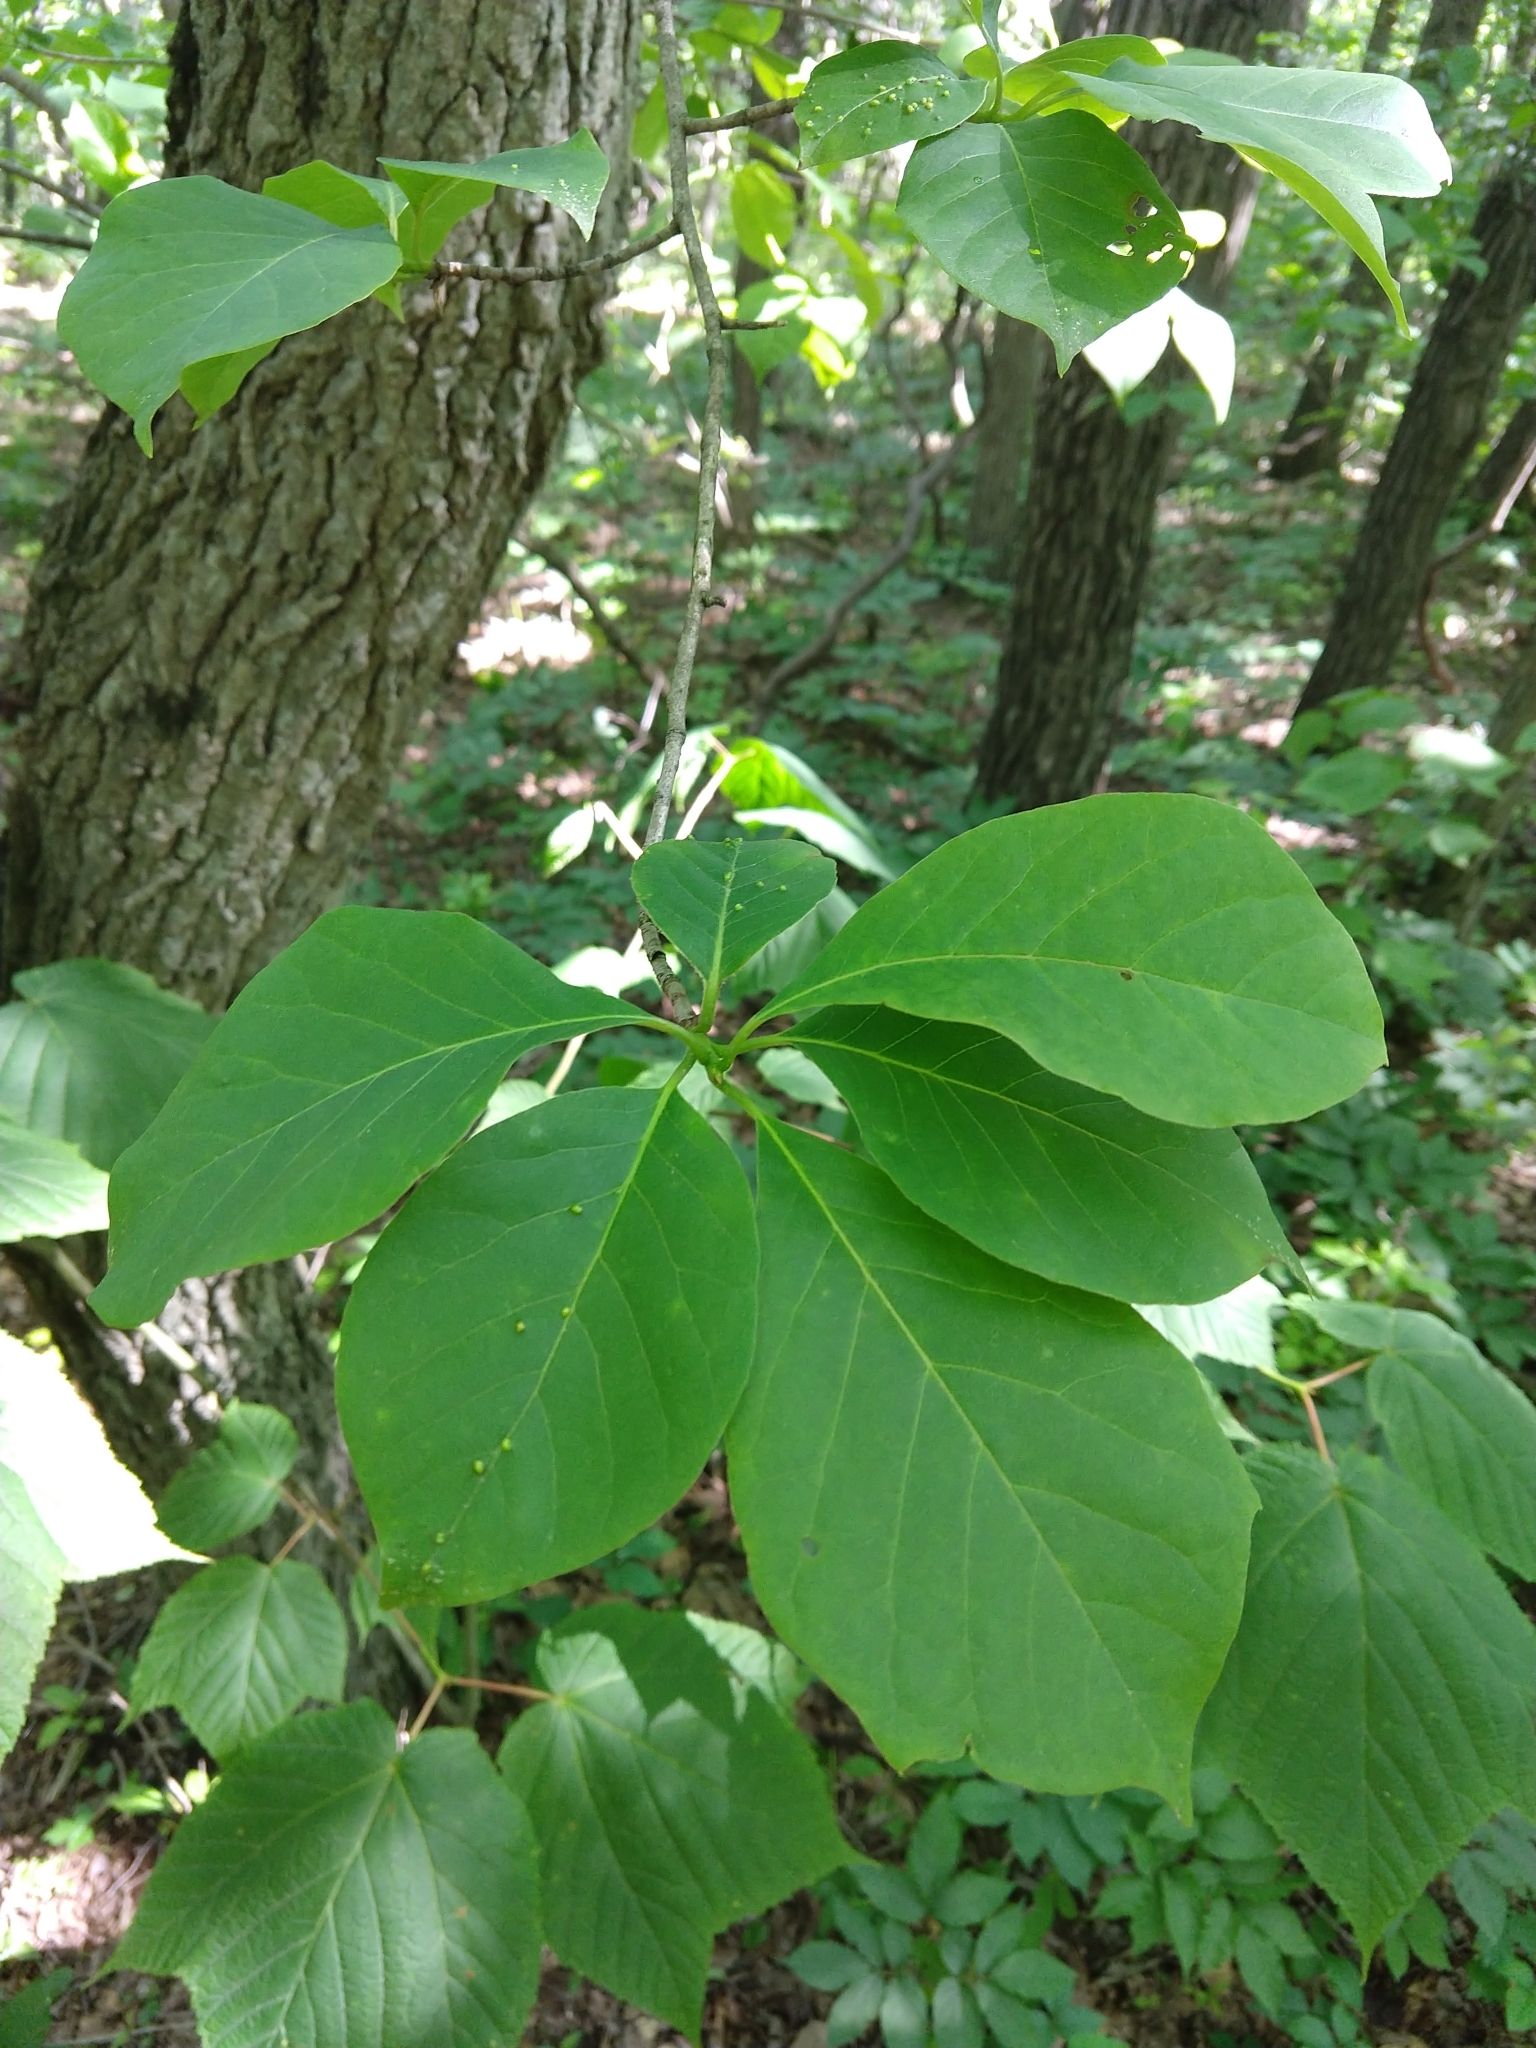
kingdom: Plantae
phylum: Tracheophyta
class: Magnoliopsida
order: Cornales
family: Nyssaceae
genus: Nyssa
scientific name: Nyssa sylvatica
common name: Black tupelo
